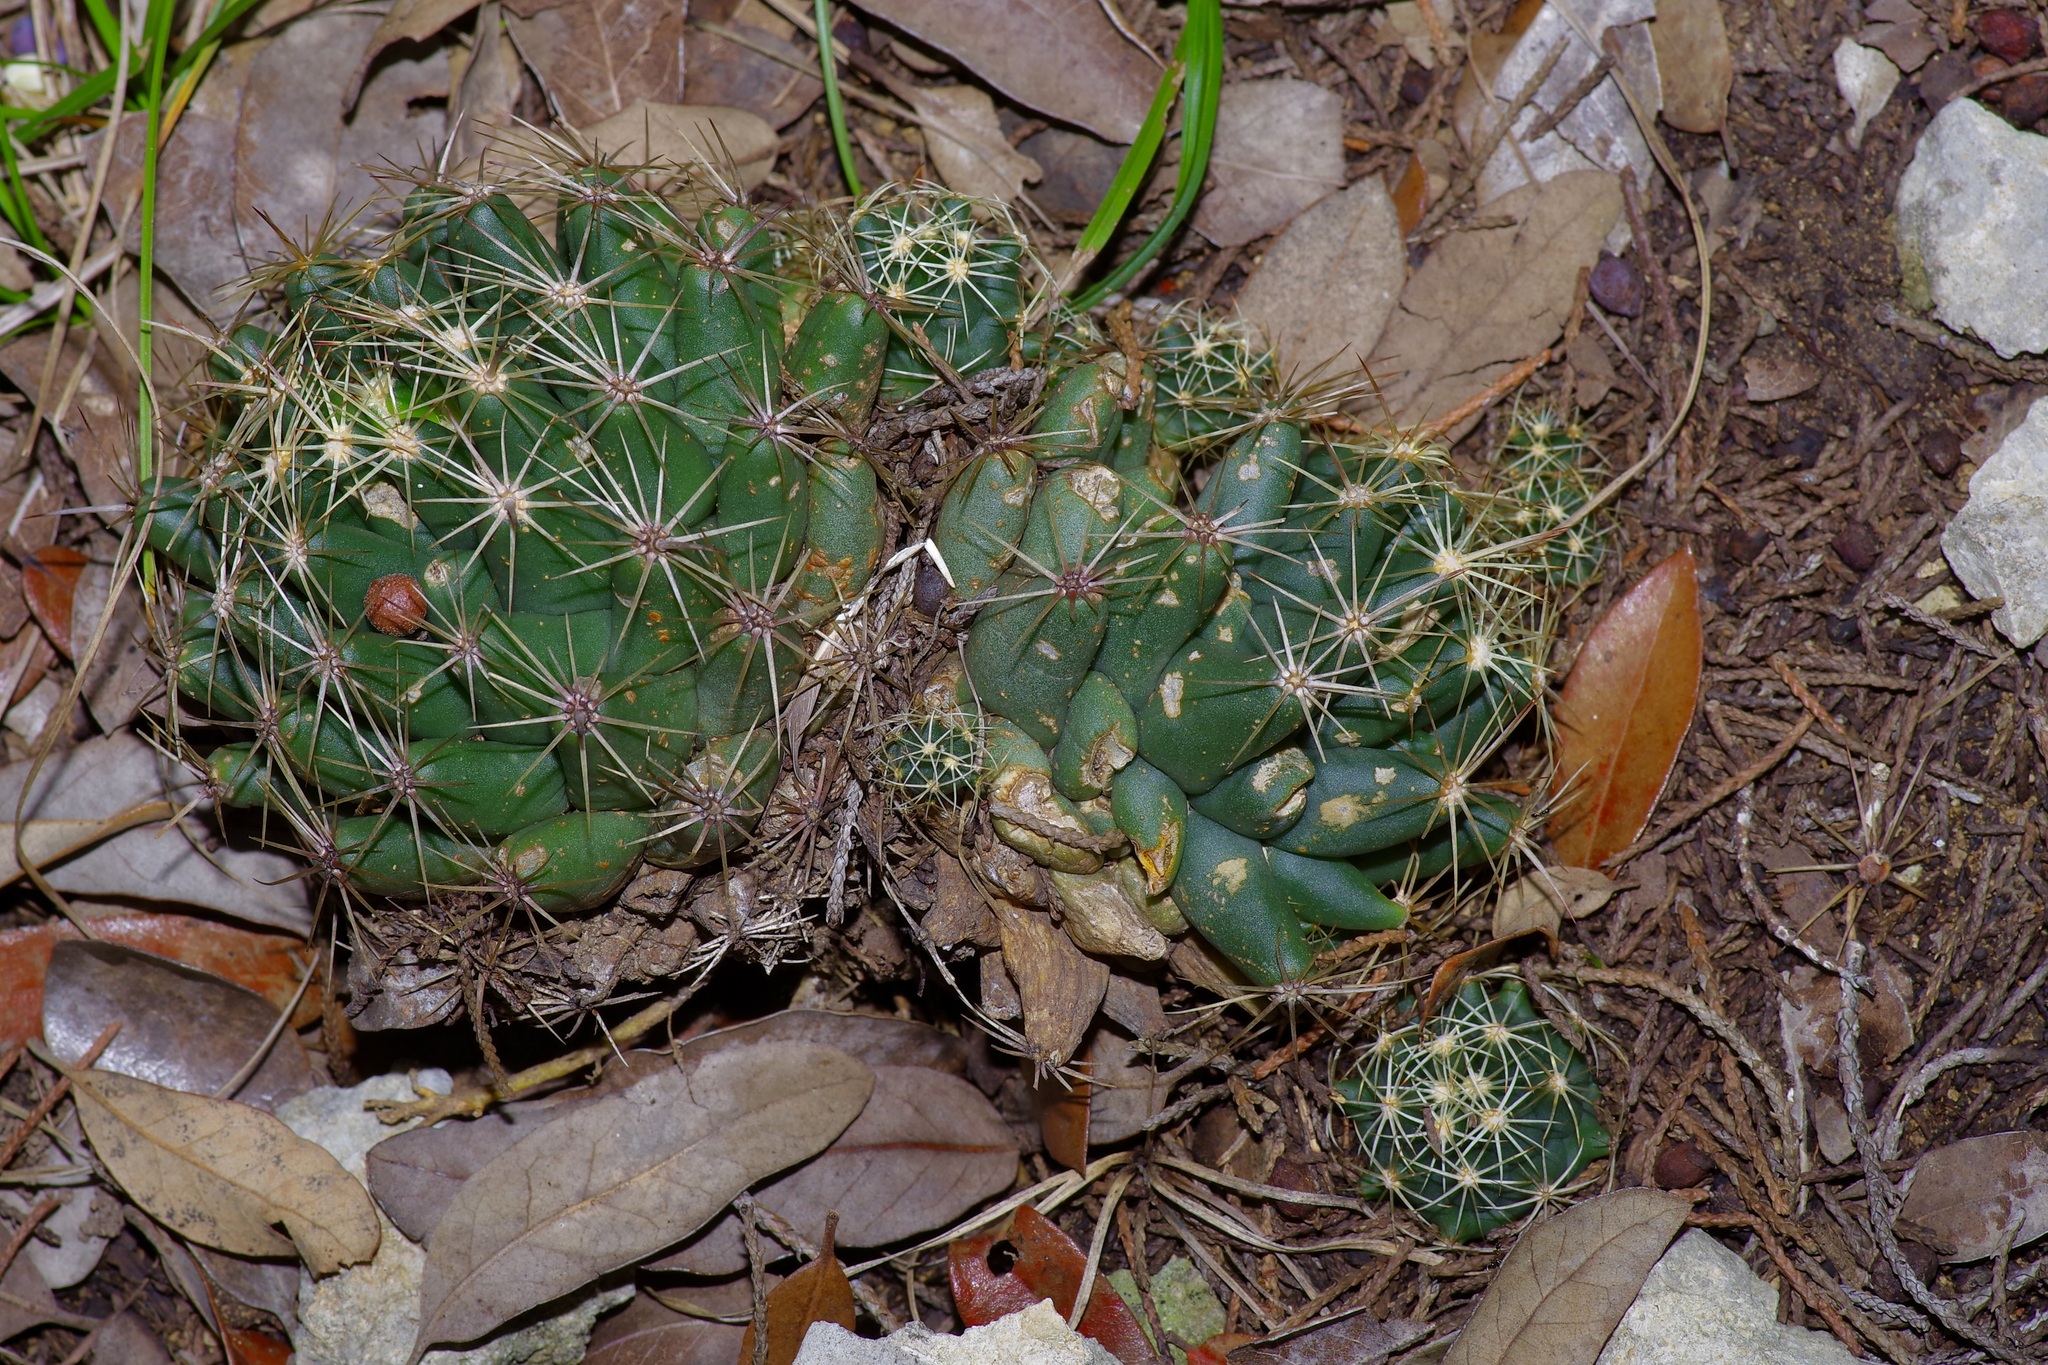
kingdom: Plantae
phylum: Tracheophyta
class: Magnoliopsida
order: Caryophyllales
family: Cactaceae
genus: Coryphantha
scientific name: Coryphantha sulcata
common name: Finger cactus
